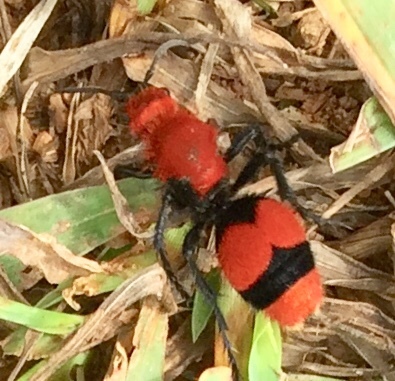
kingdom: Animalia
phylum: Arthropoda
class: Insecta
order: Hymenoptera
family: Mutillidae
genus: Dasymutilla
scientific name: Dasymutilla occidentalis
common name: Common eastern velvet ant
